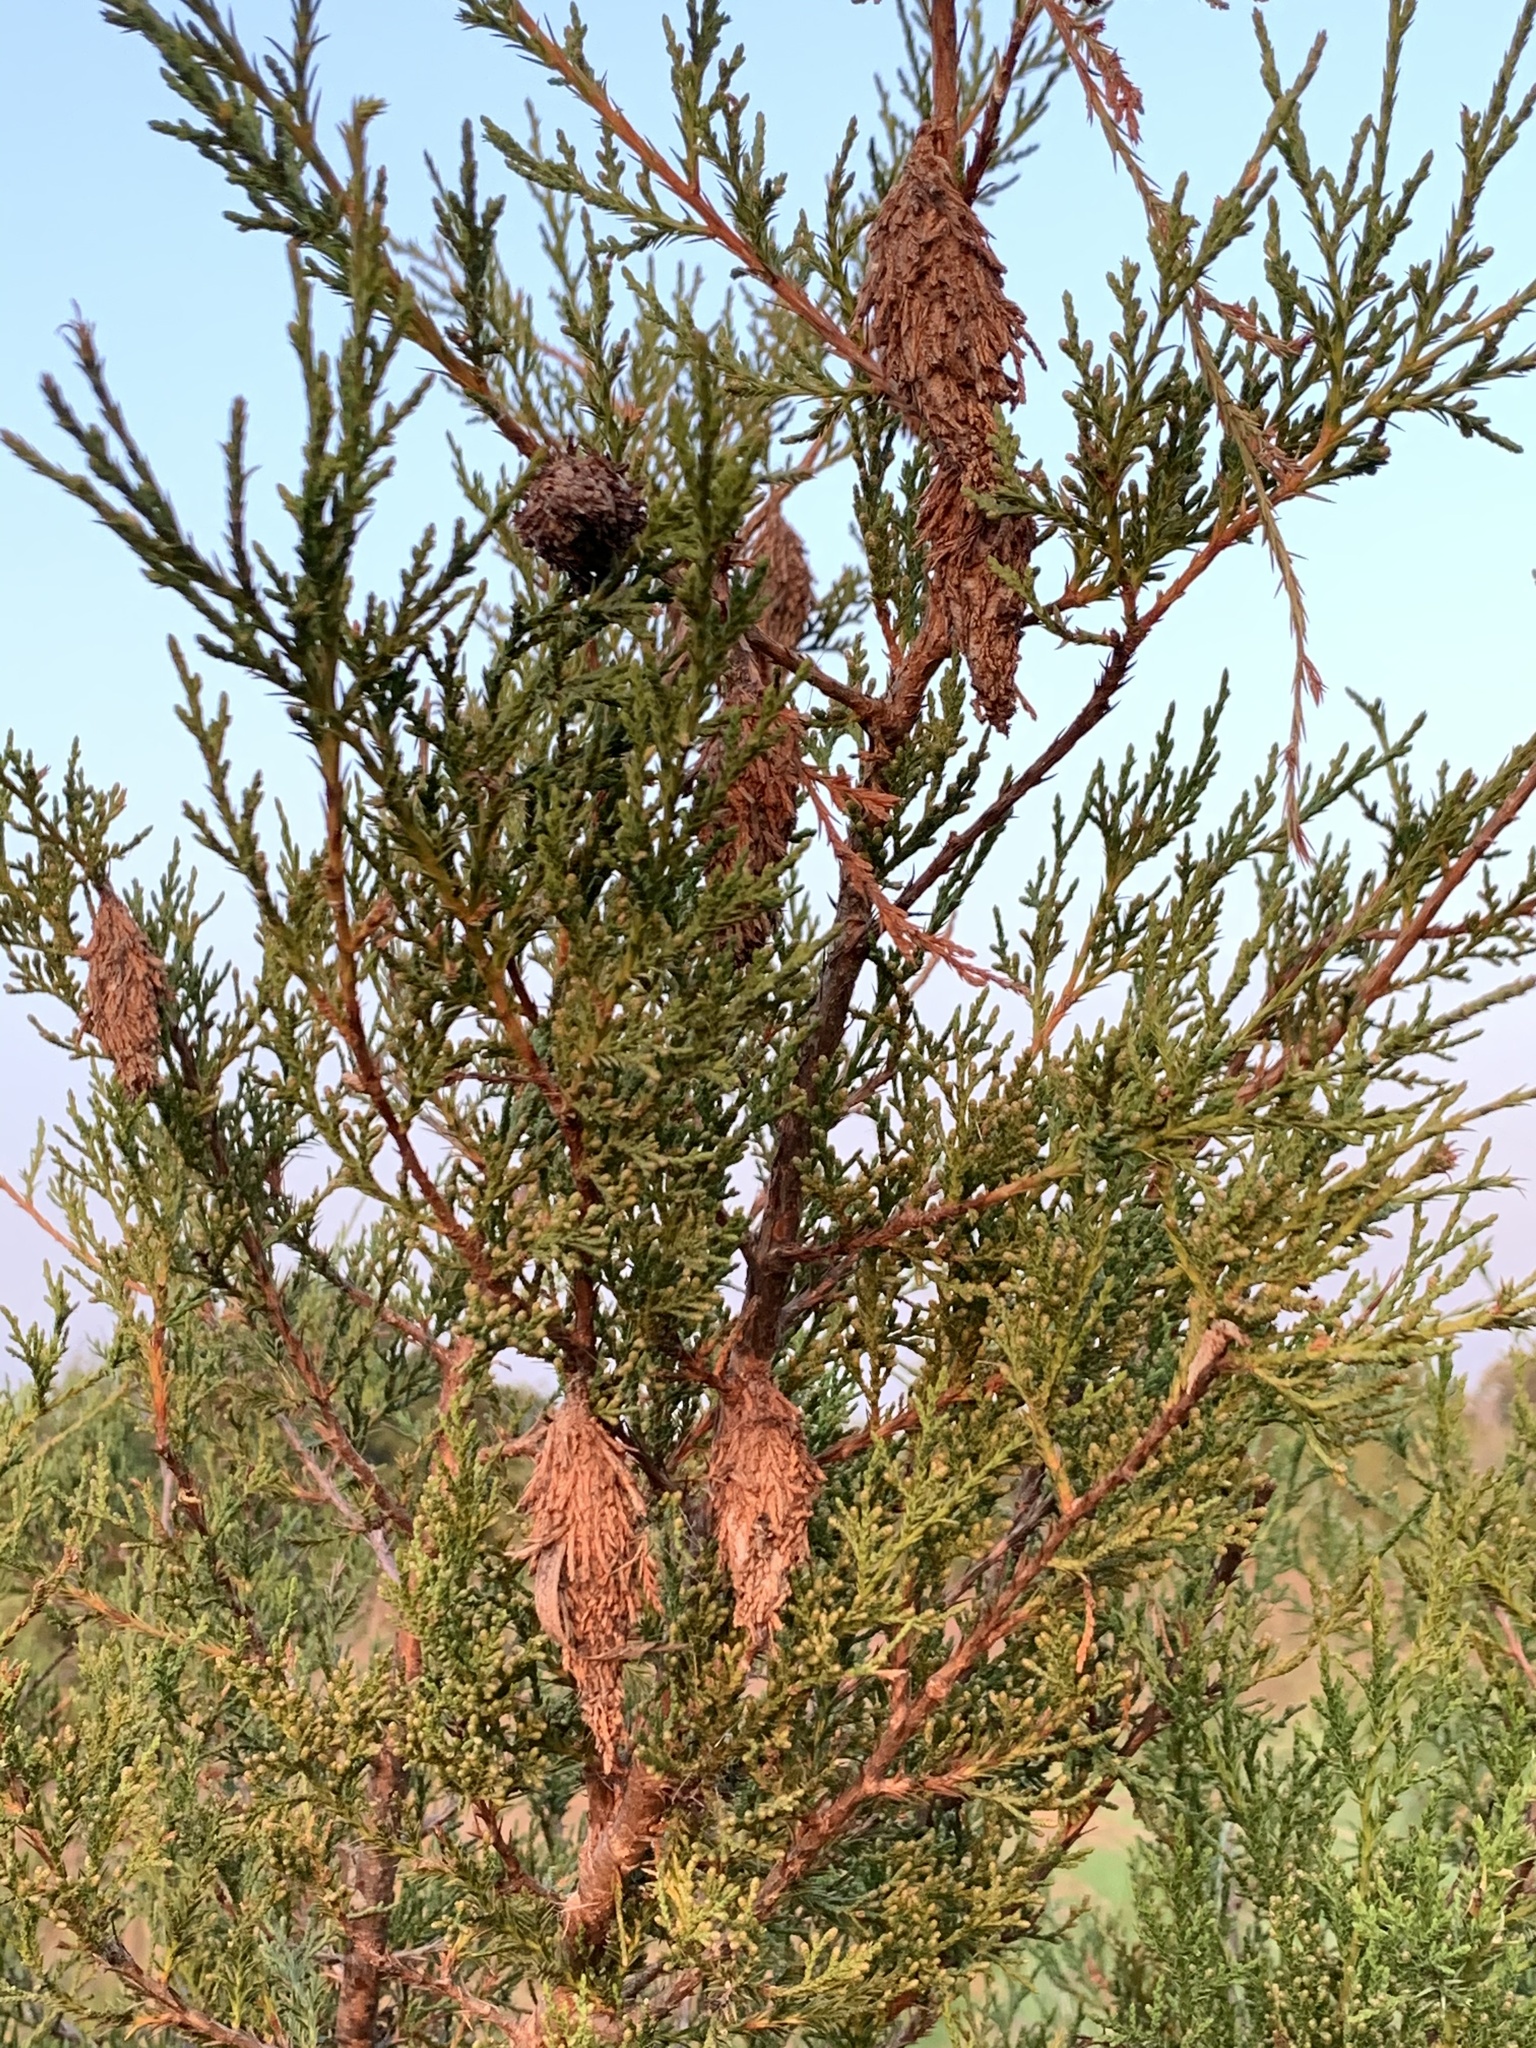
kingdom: Animalia
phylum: Arthropoda
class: Insecta
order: Lepidoptera
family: Psychidae
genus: Thyridopteryx
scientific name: Thyridopteryx ephemeraeformis
